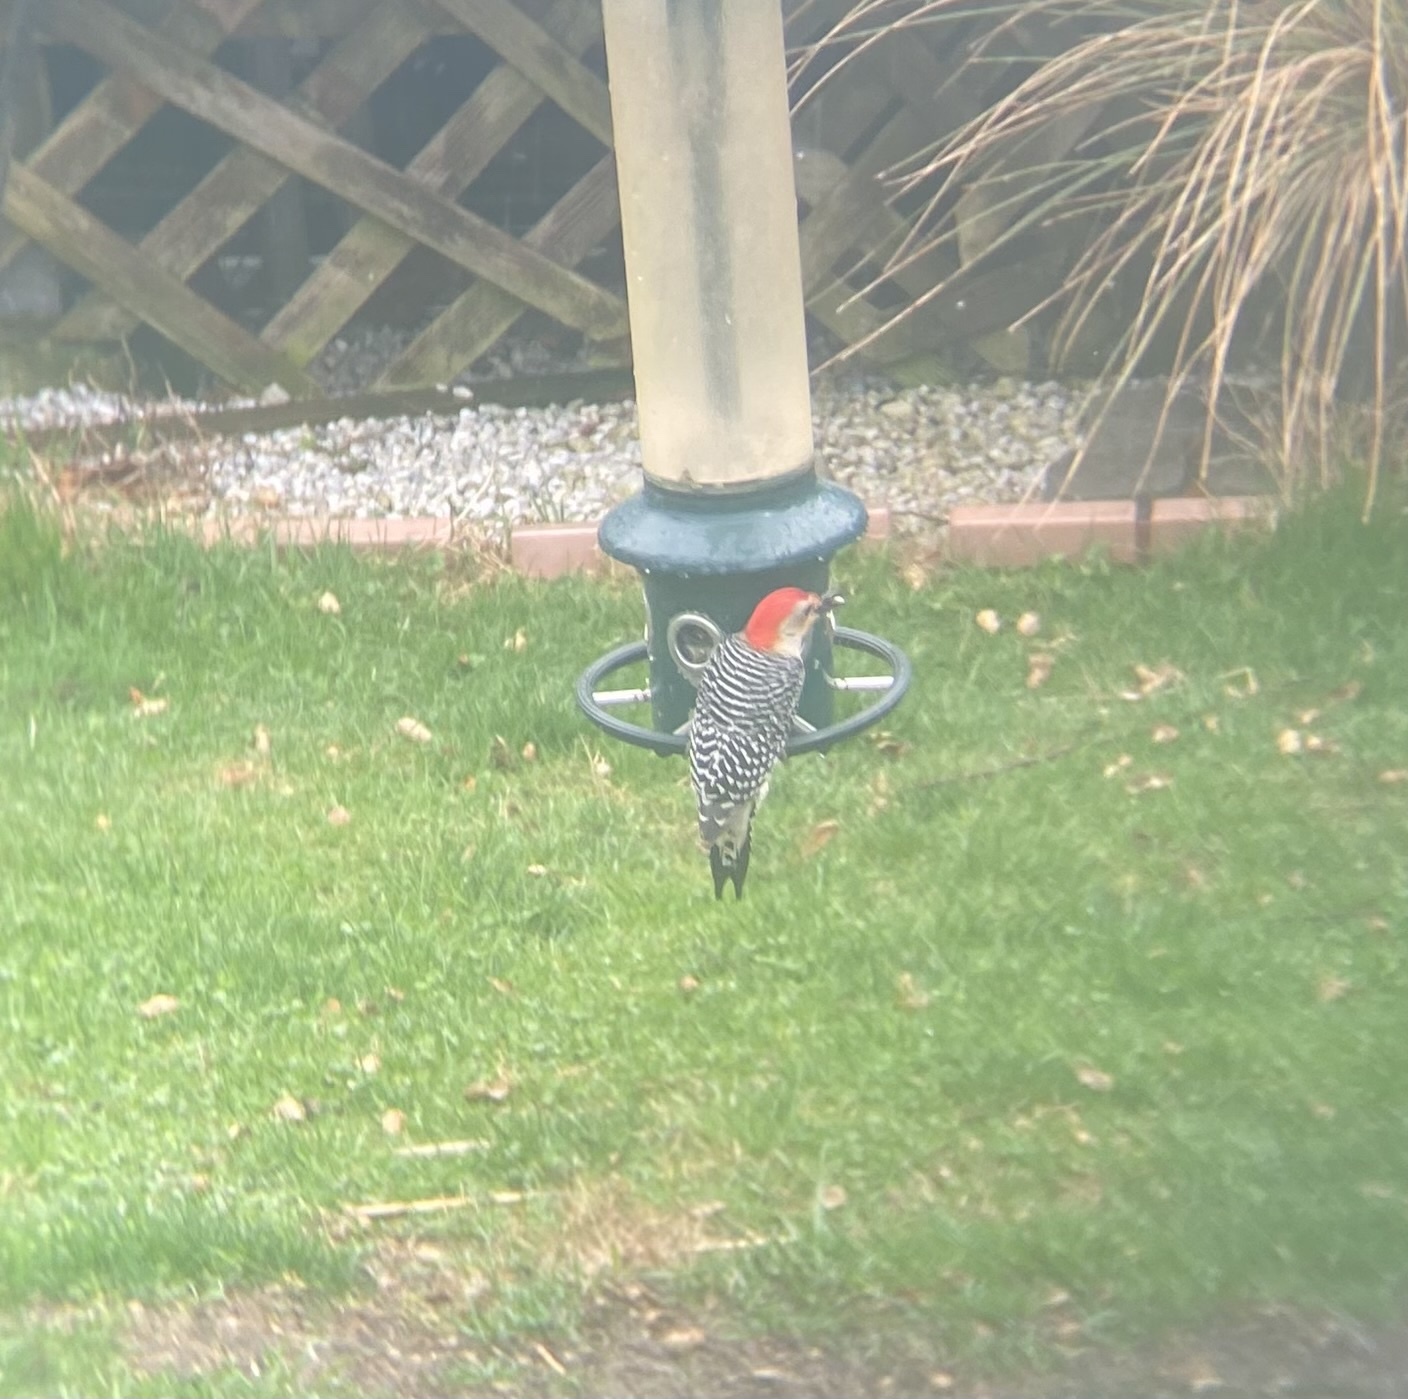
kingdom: Animalia
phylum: Chordata
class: Aves
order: Piciformes
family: Picidae
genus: Melanerpes
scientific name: Melanerpes carolinus
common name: Red-bellied woodpecker
